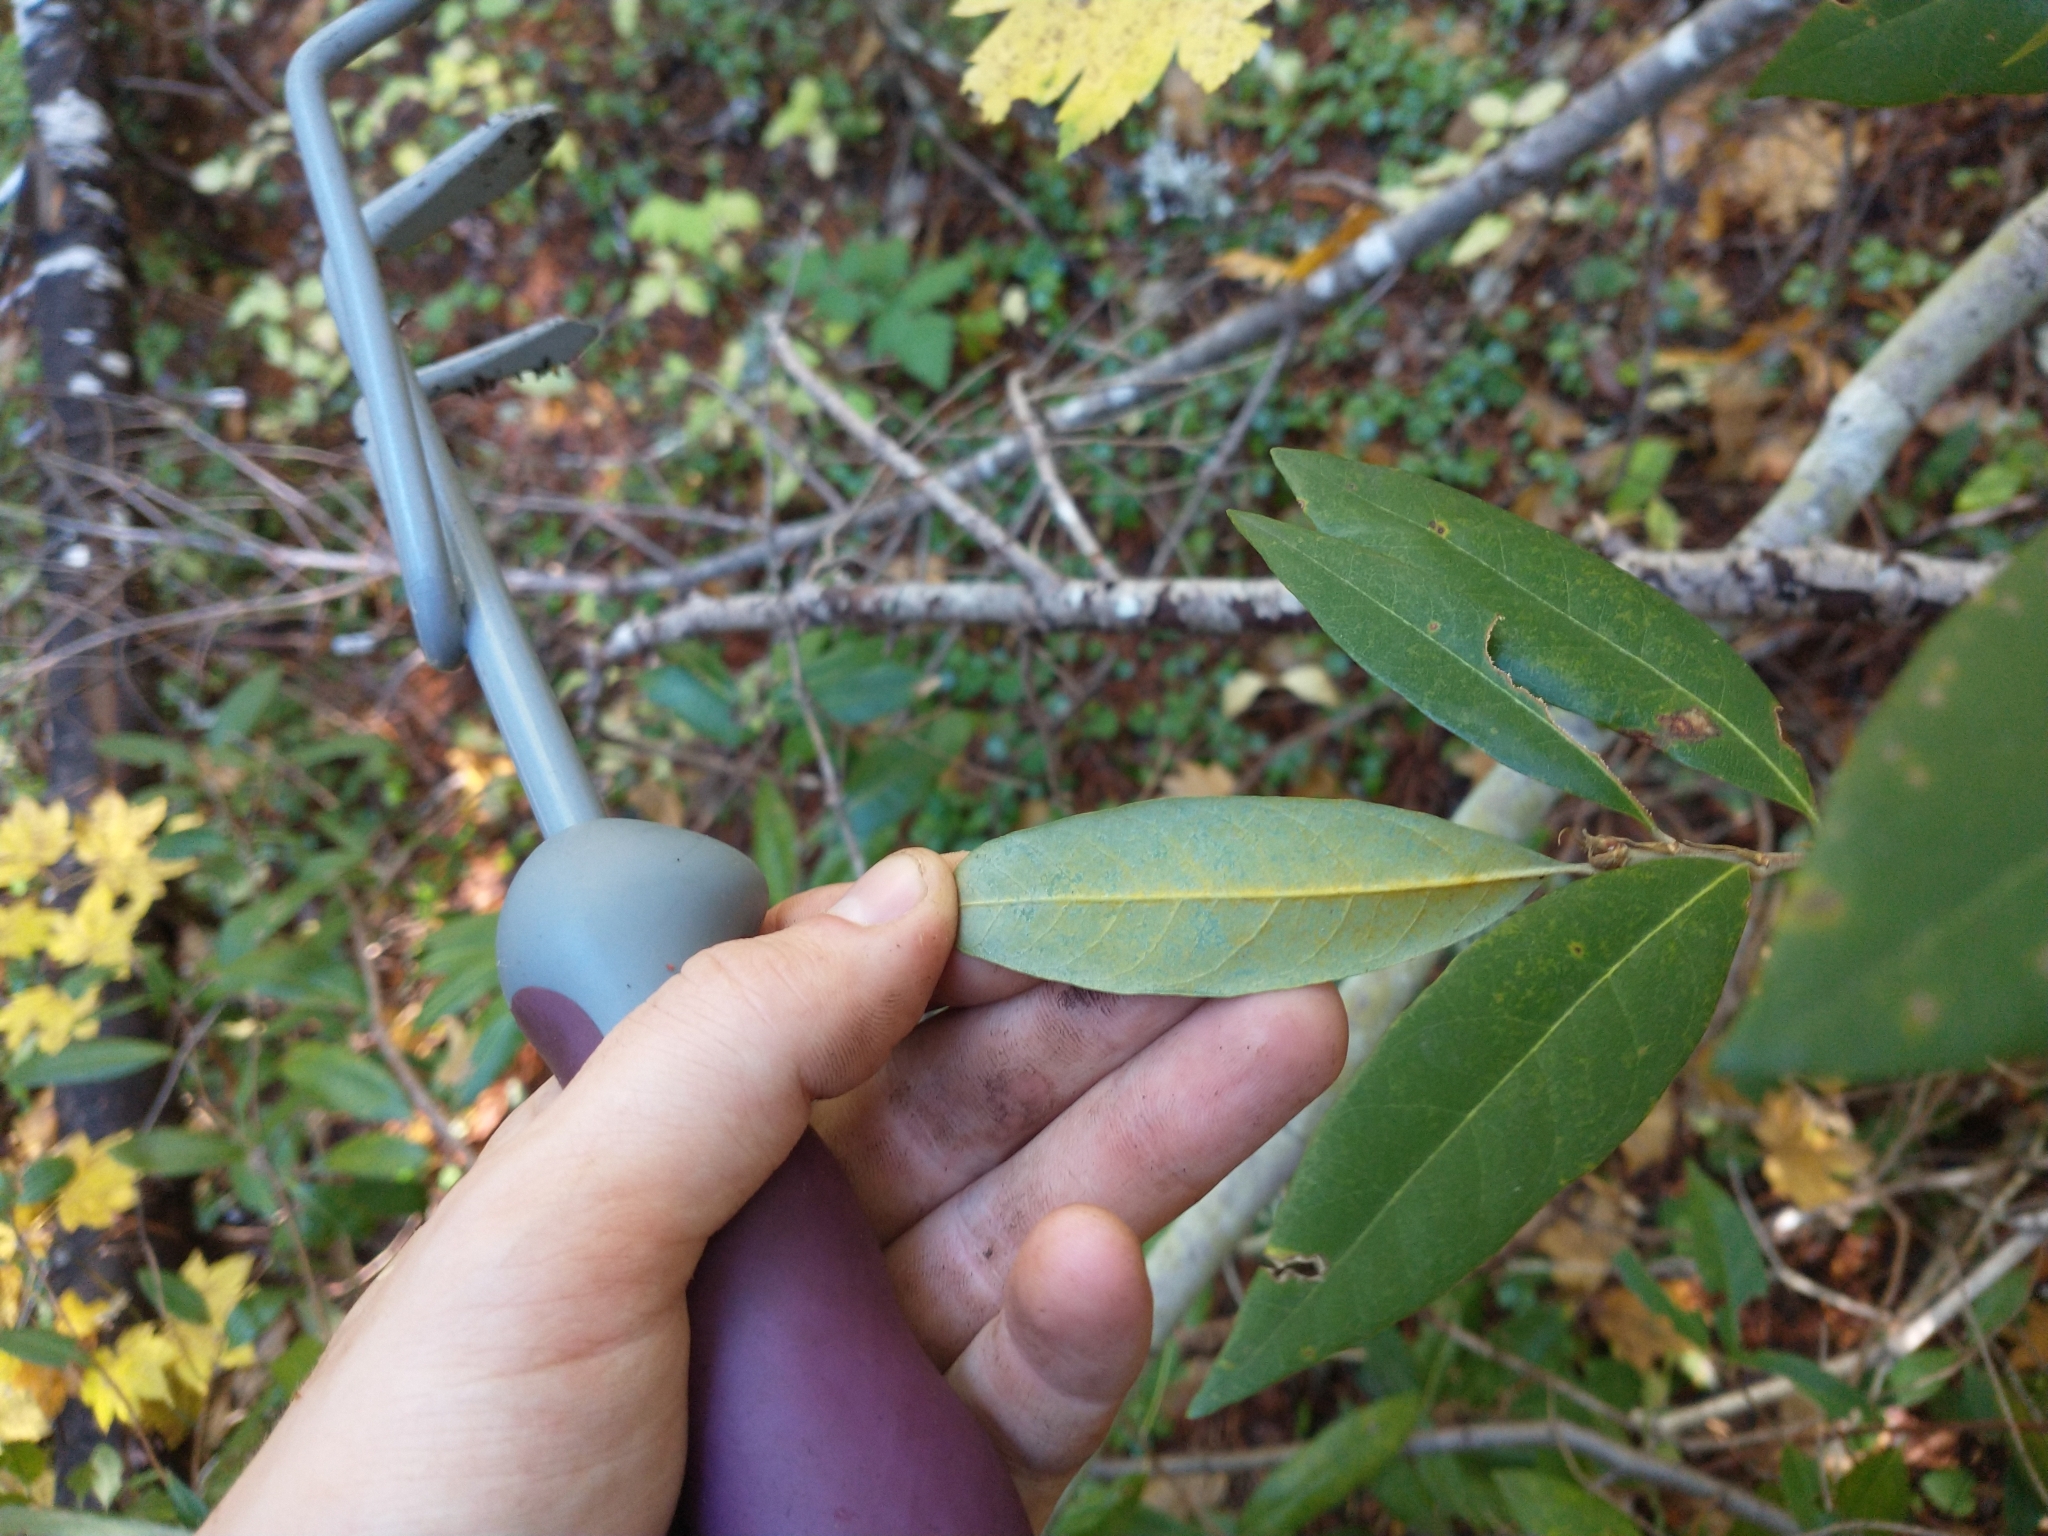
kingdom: Plantae
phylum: Tracheophyta
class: Magnoliopsida
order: Fagales
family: Fagaceae
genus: Chrysolepis
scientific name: Chrysolepis chrysophylla
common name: Giant chinquapin
